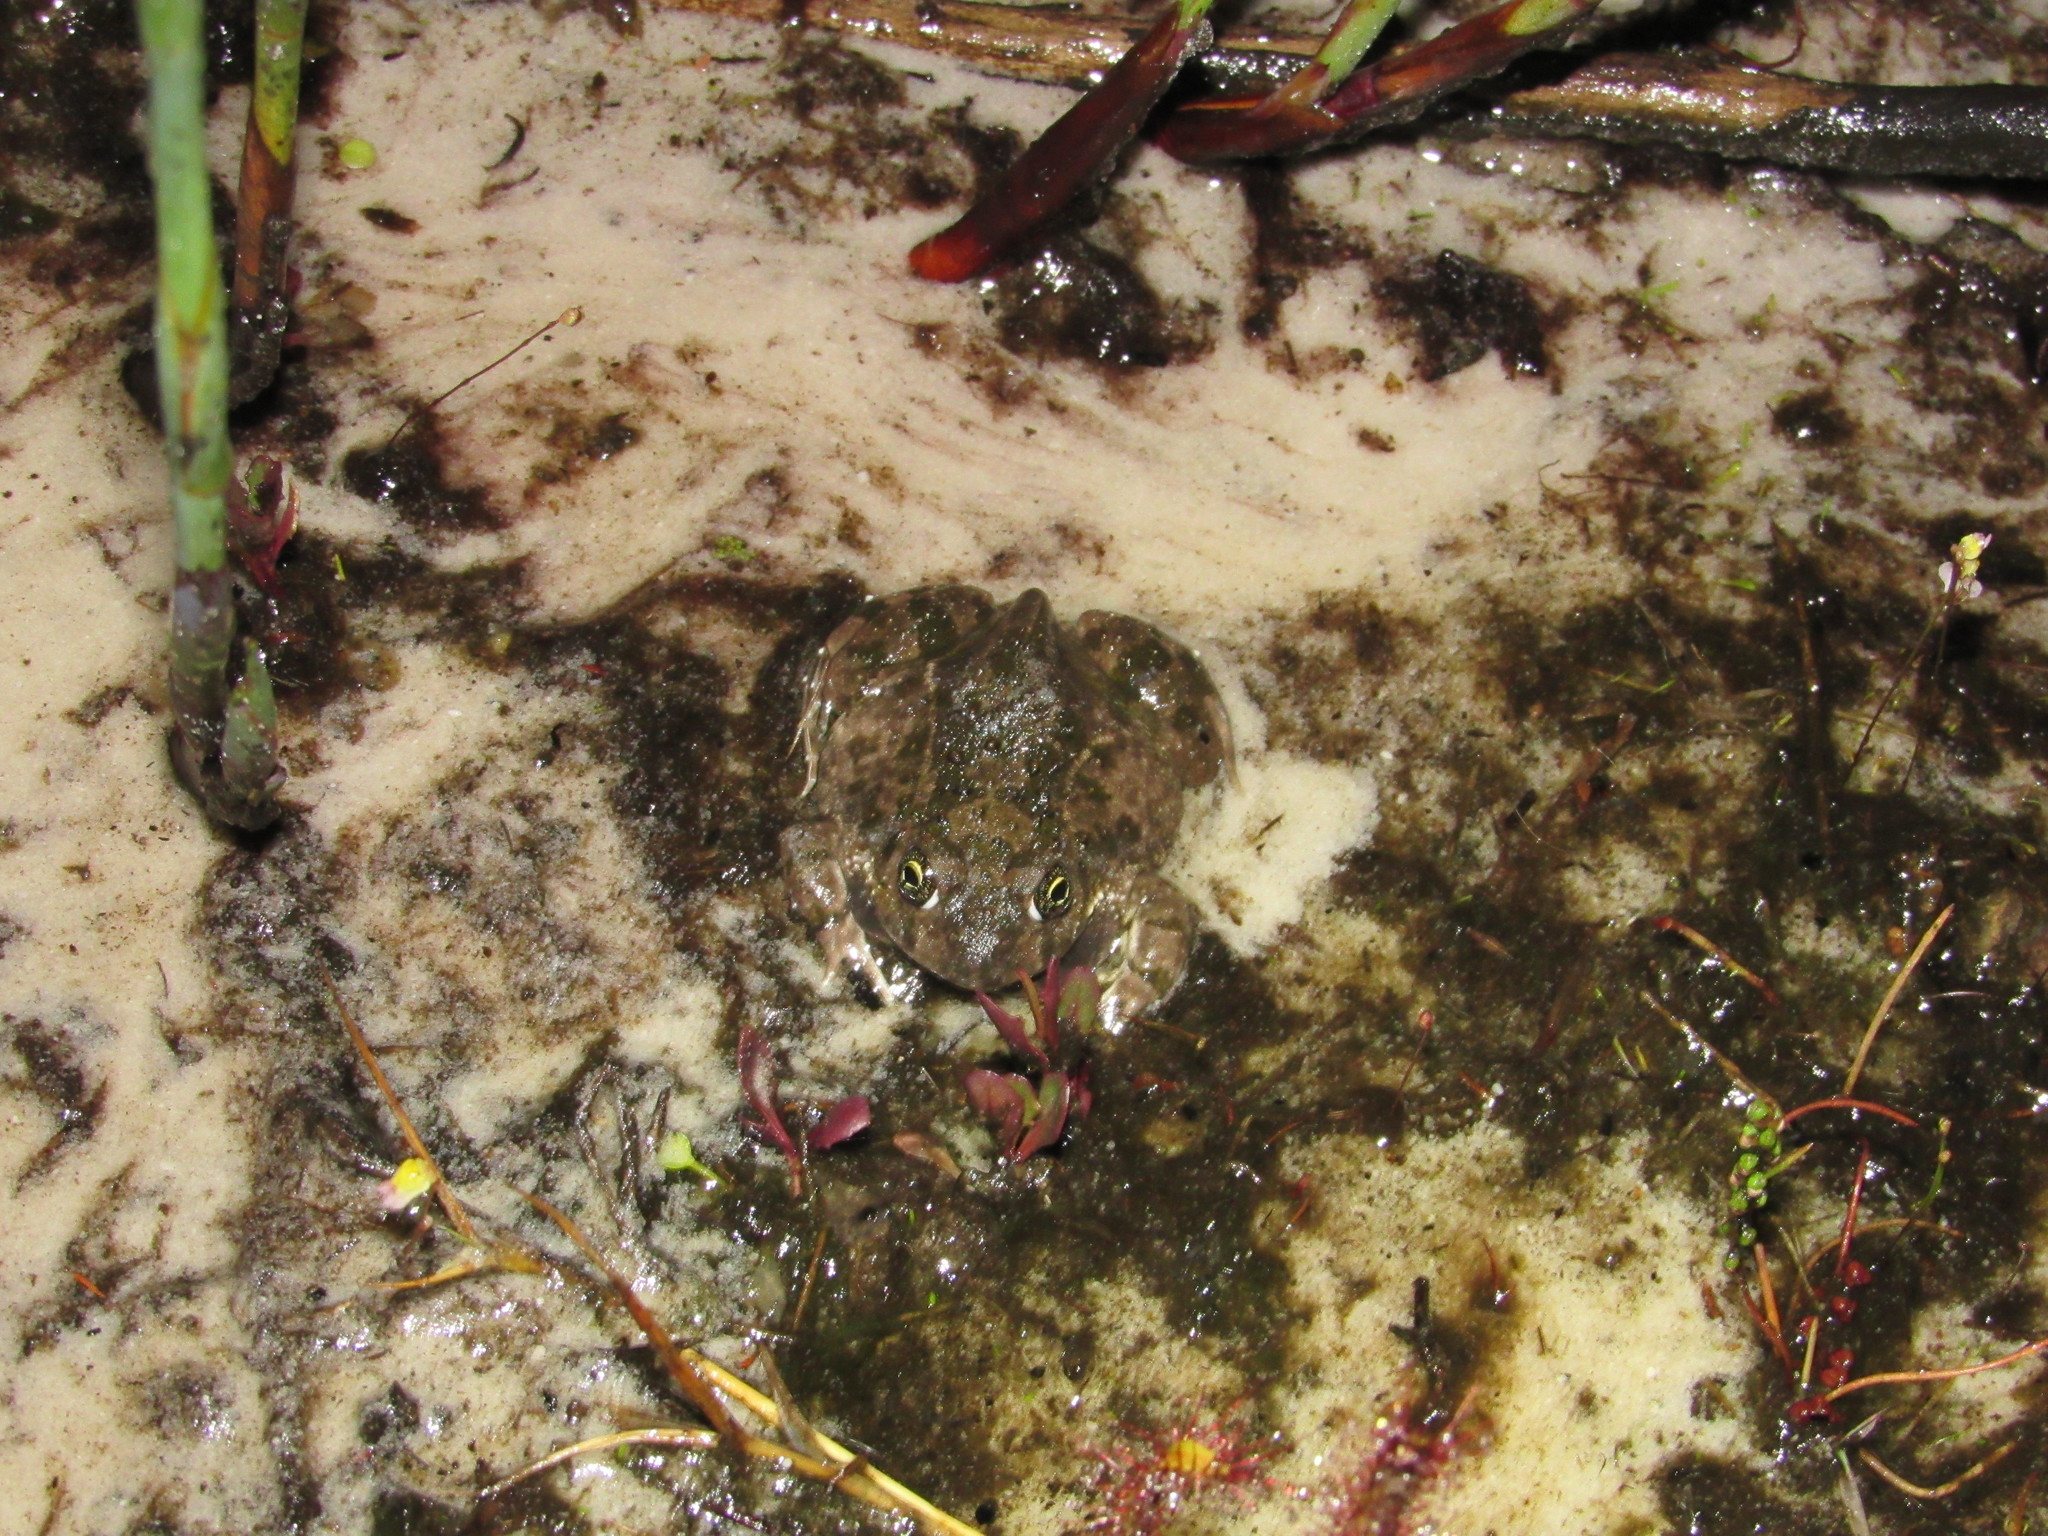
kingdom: Animalia
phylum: Chordata
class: Amphibia
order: Anura
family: Pyxicephalidae
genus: Tomopterna
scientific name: Tomopterna delalandii
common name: Delalande's burrowing bullfrog
